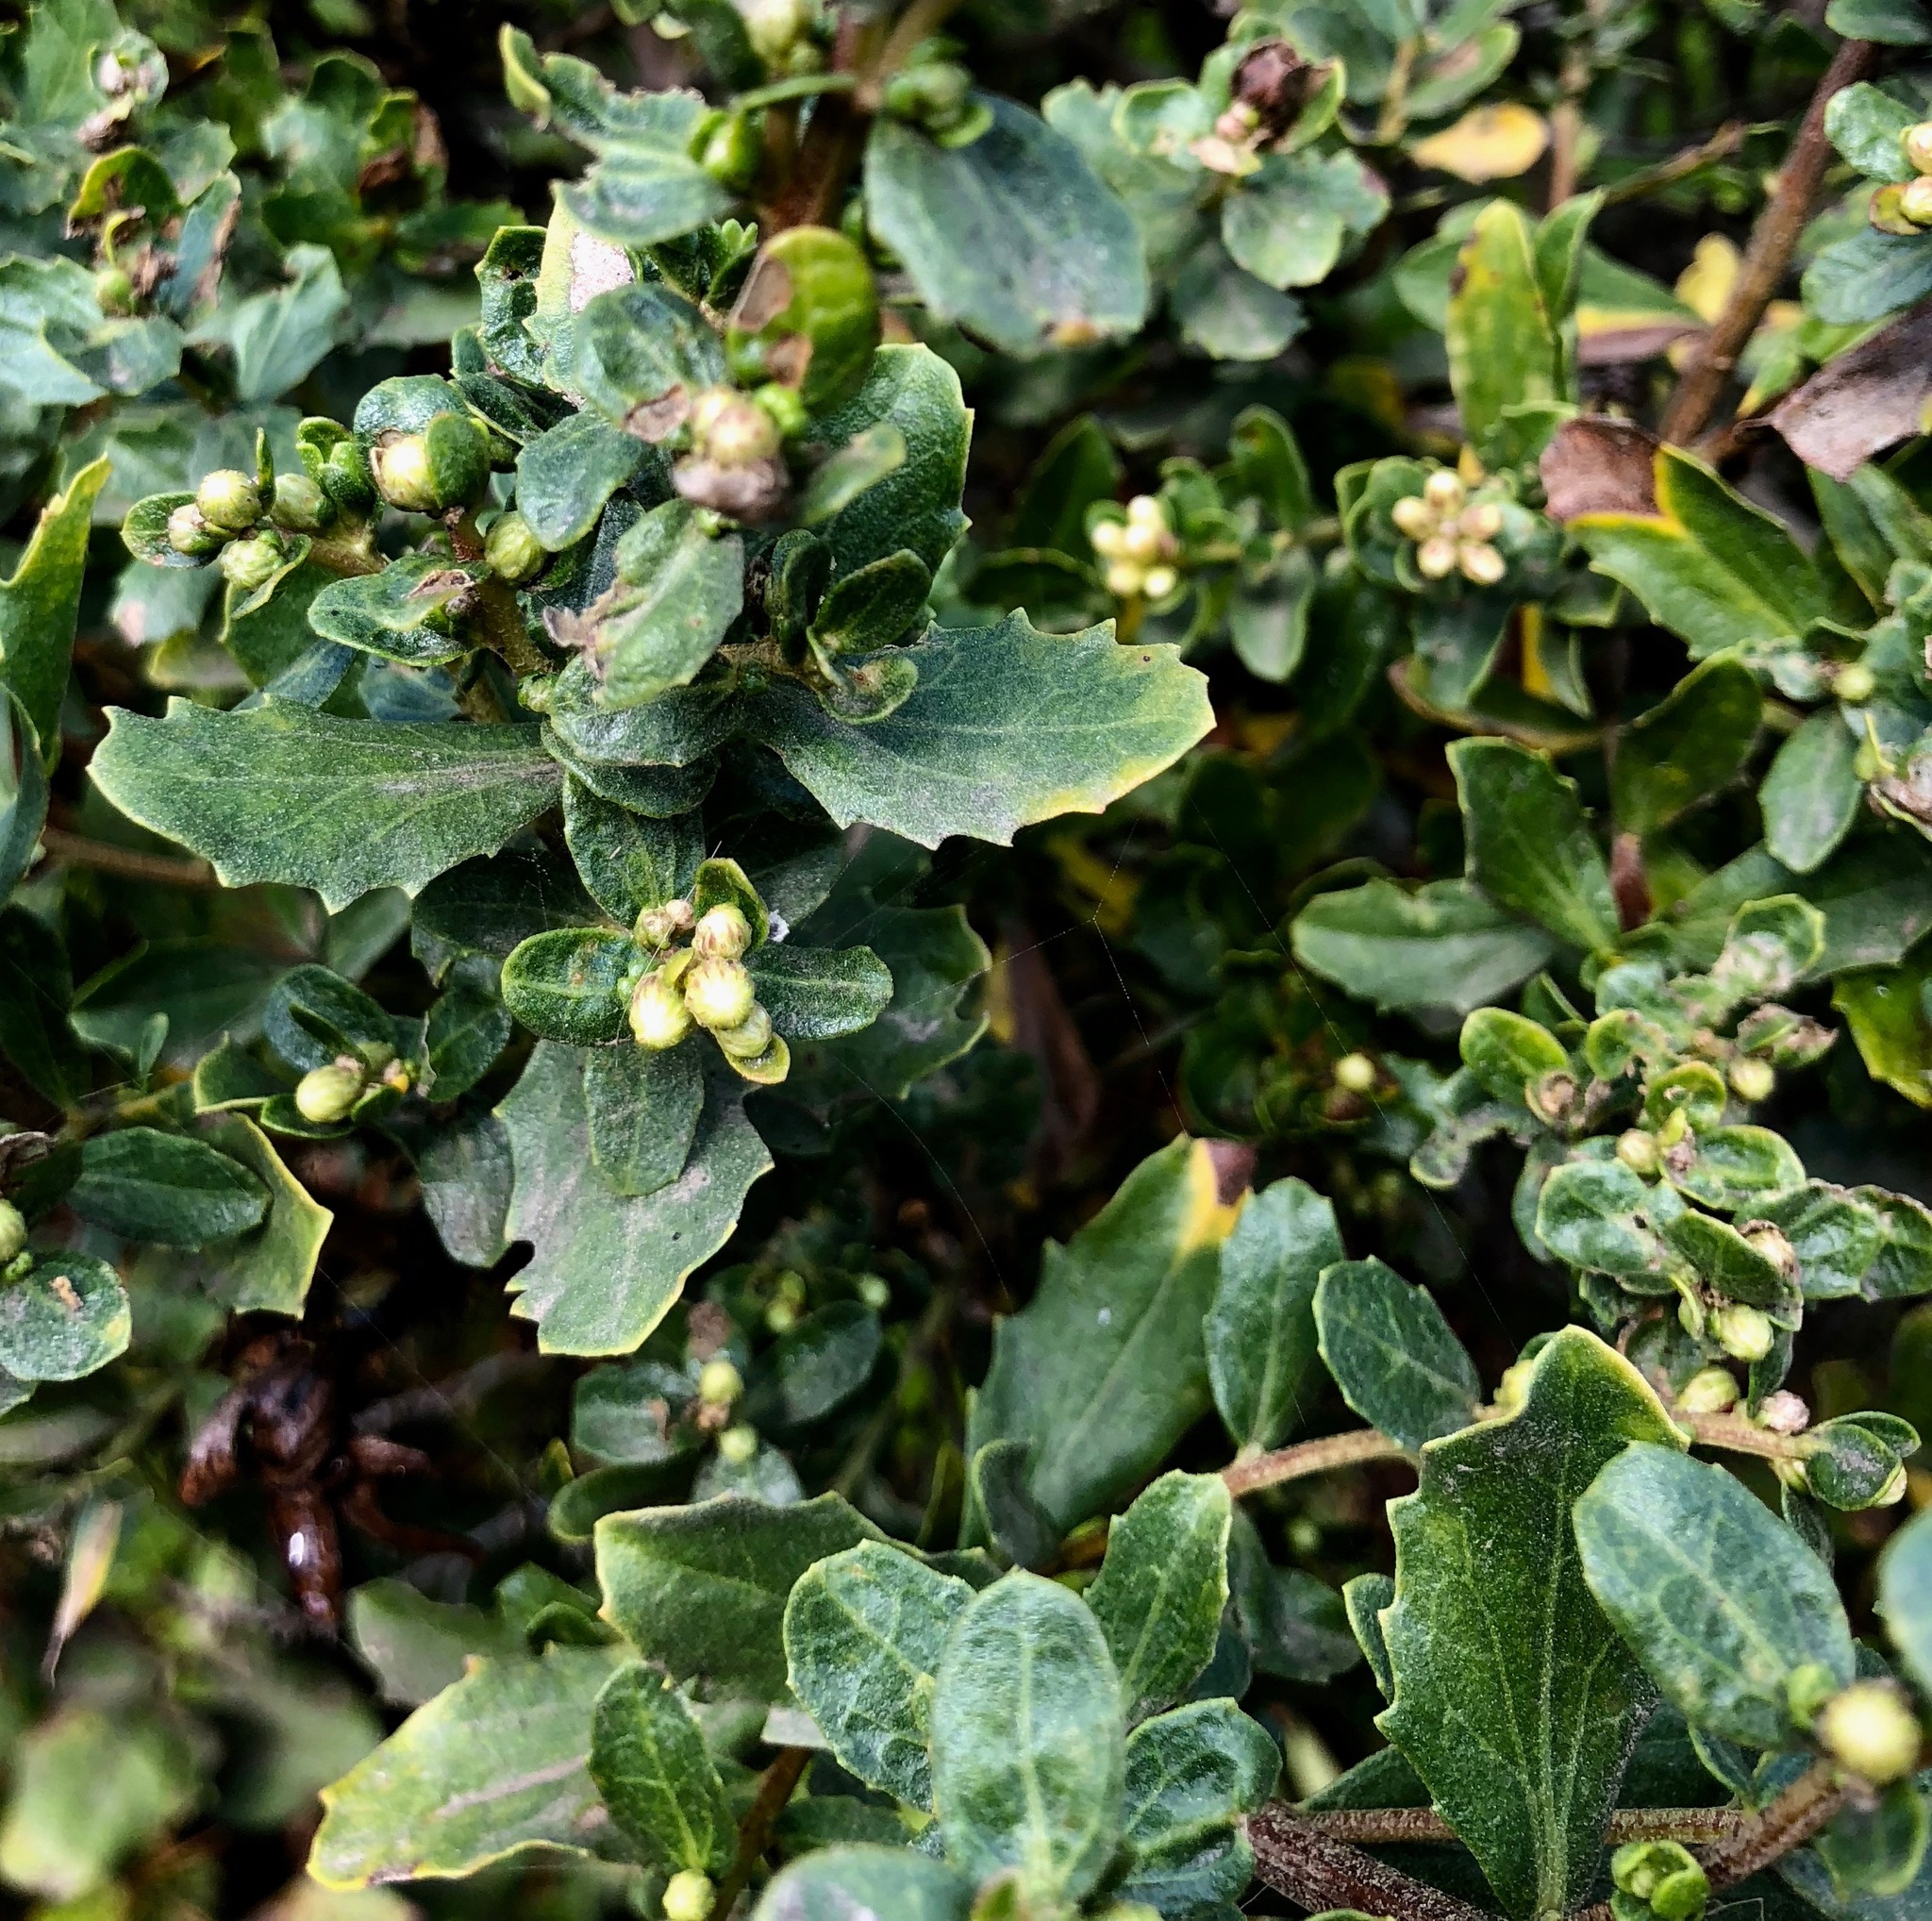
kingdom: Plantae
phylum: Tracheophyta
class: Magnoliopsida
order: Asterales
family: Asteraceae
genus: Baccharis
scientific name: Baccharis pilularis
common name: Coyotebrush
